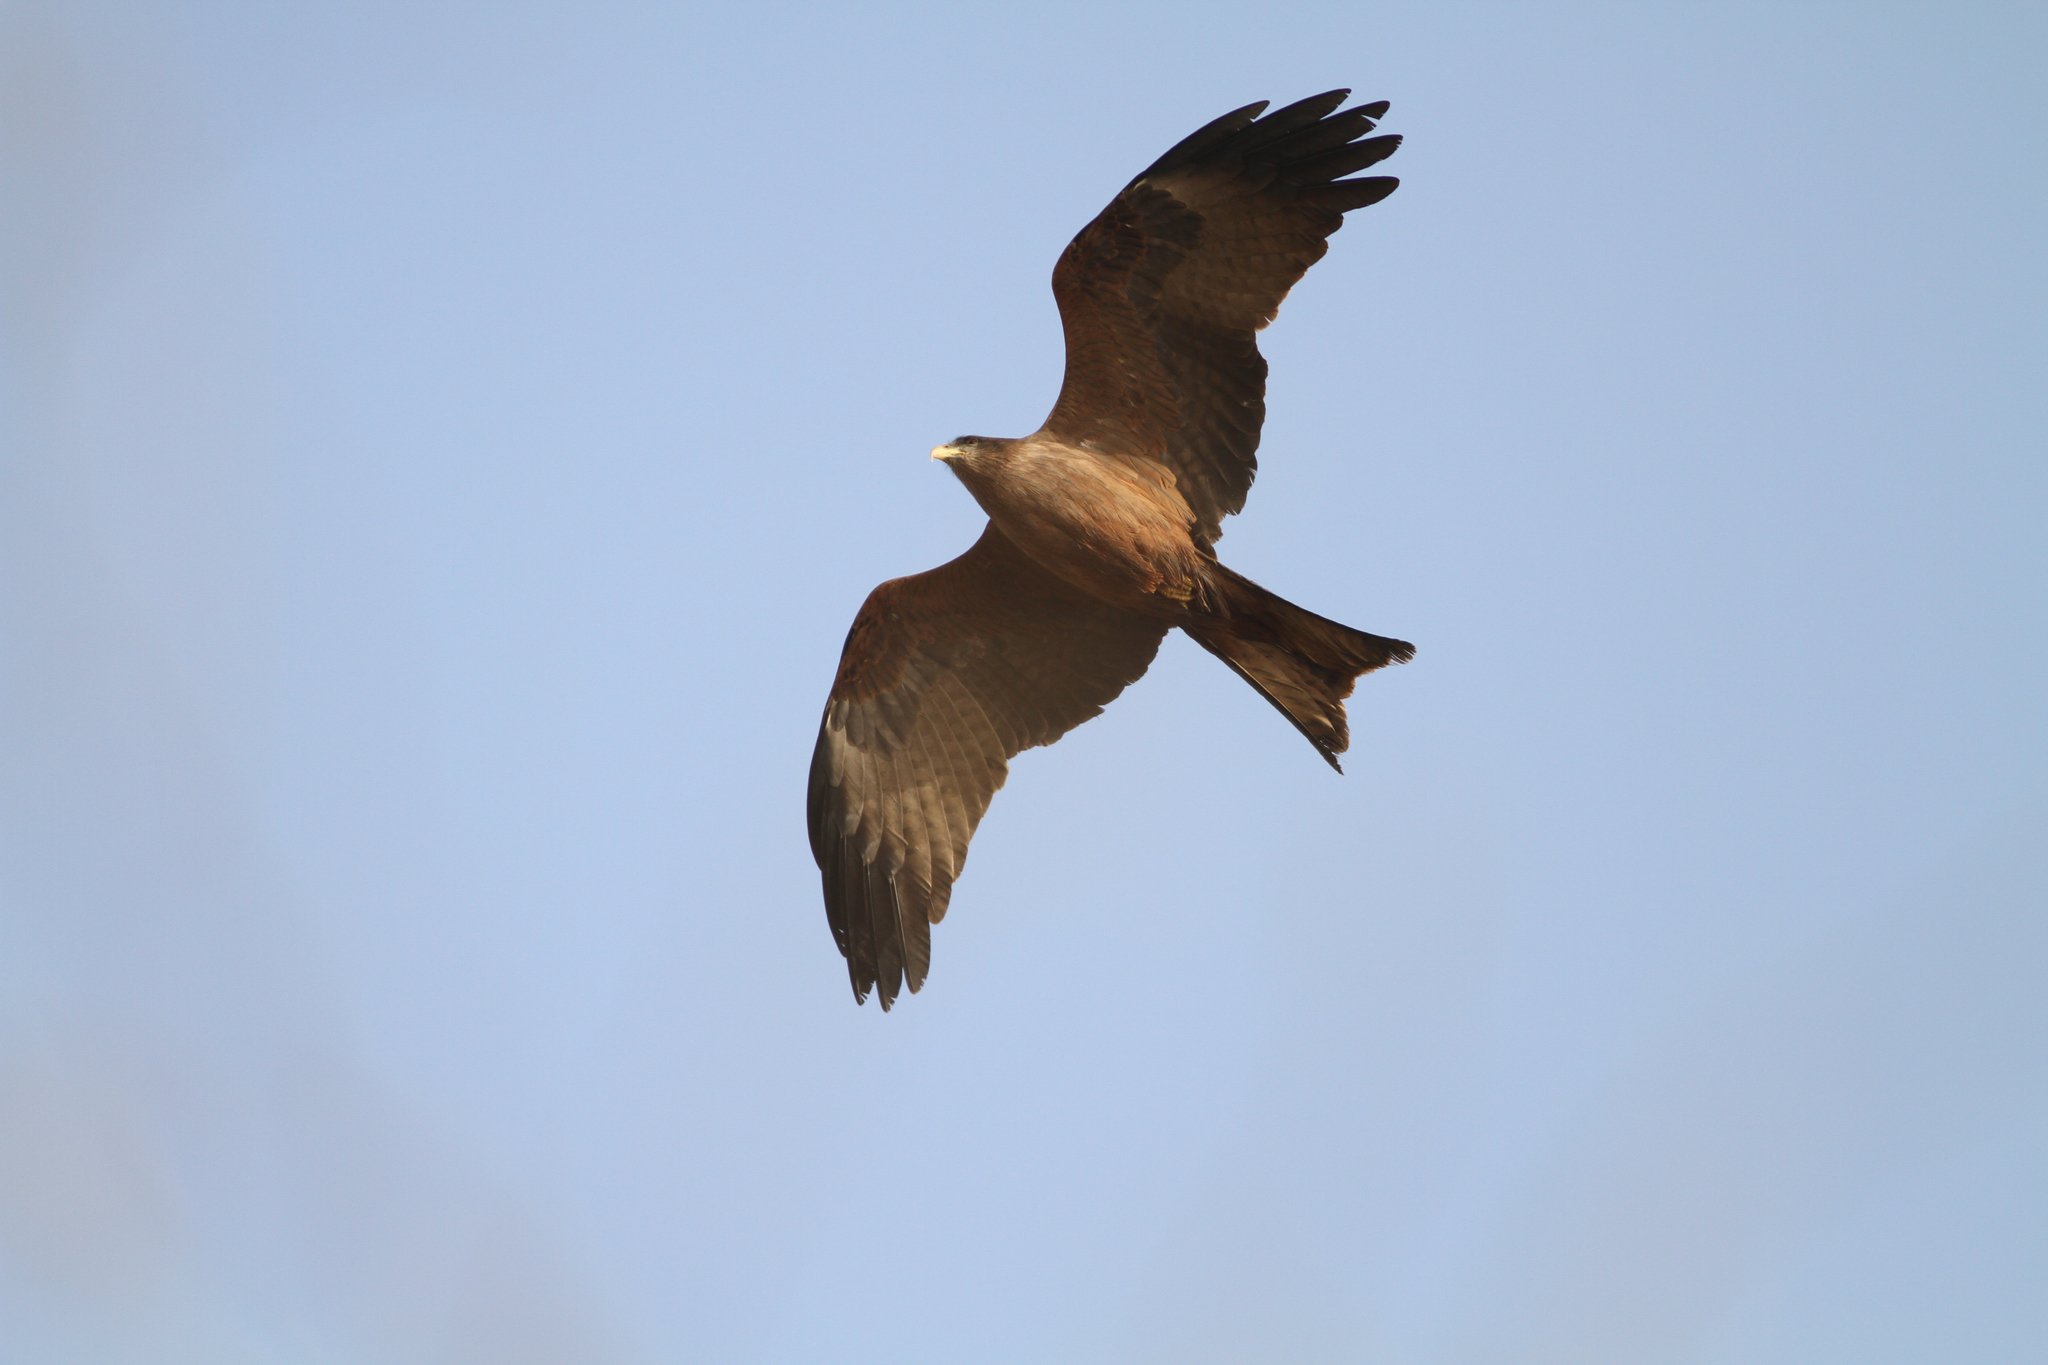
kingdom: Animalia
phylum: Chordata
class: Aves
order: Accipitriformes
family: Accipitridae
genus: Milvus
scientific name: Milvus migrans
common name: Black kite
